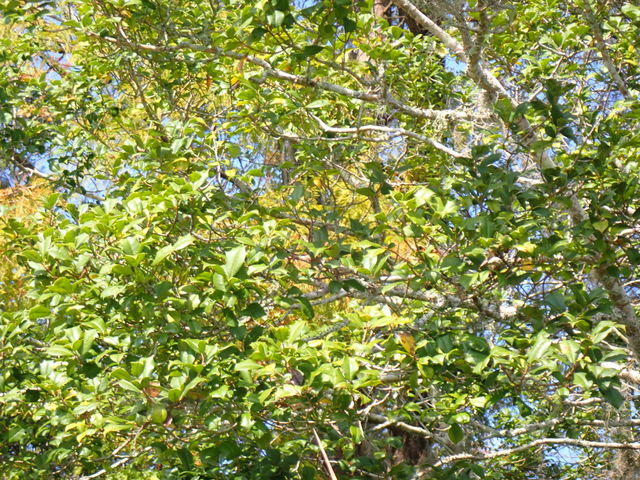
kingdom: Plantae
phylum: Tracheophyta
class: Magnoliopsida
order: Aquifoliales
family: Aquifoliaceae
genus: Ilex
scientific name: Ilex opaca
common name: American holly
